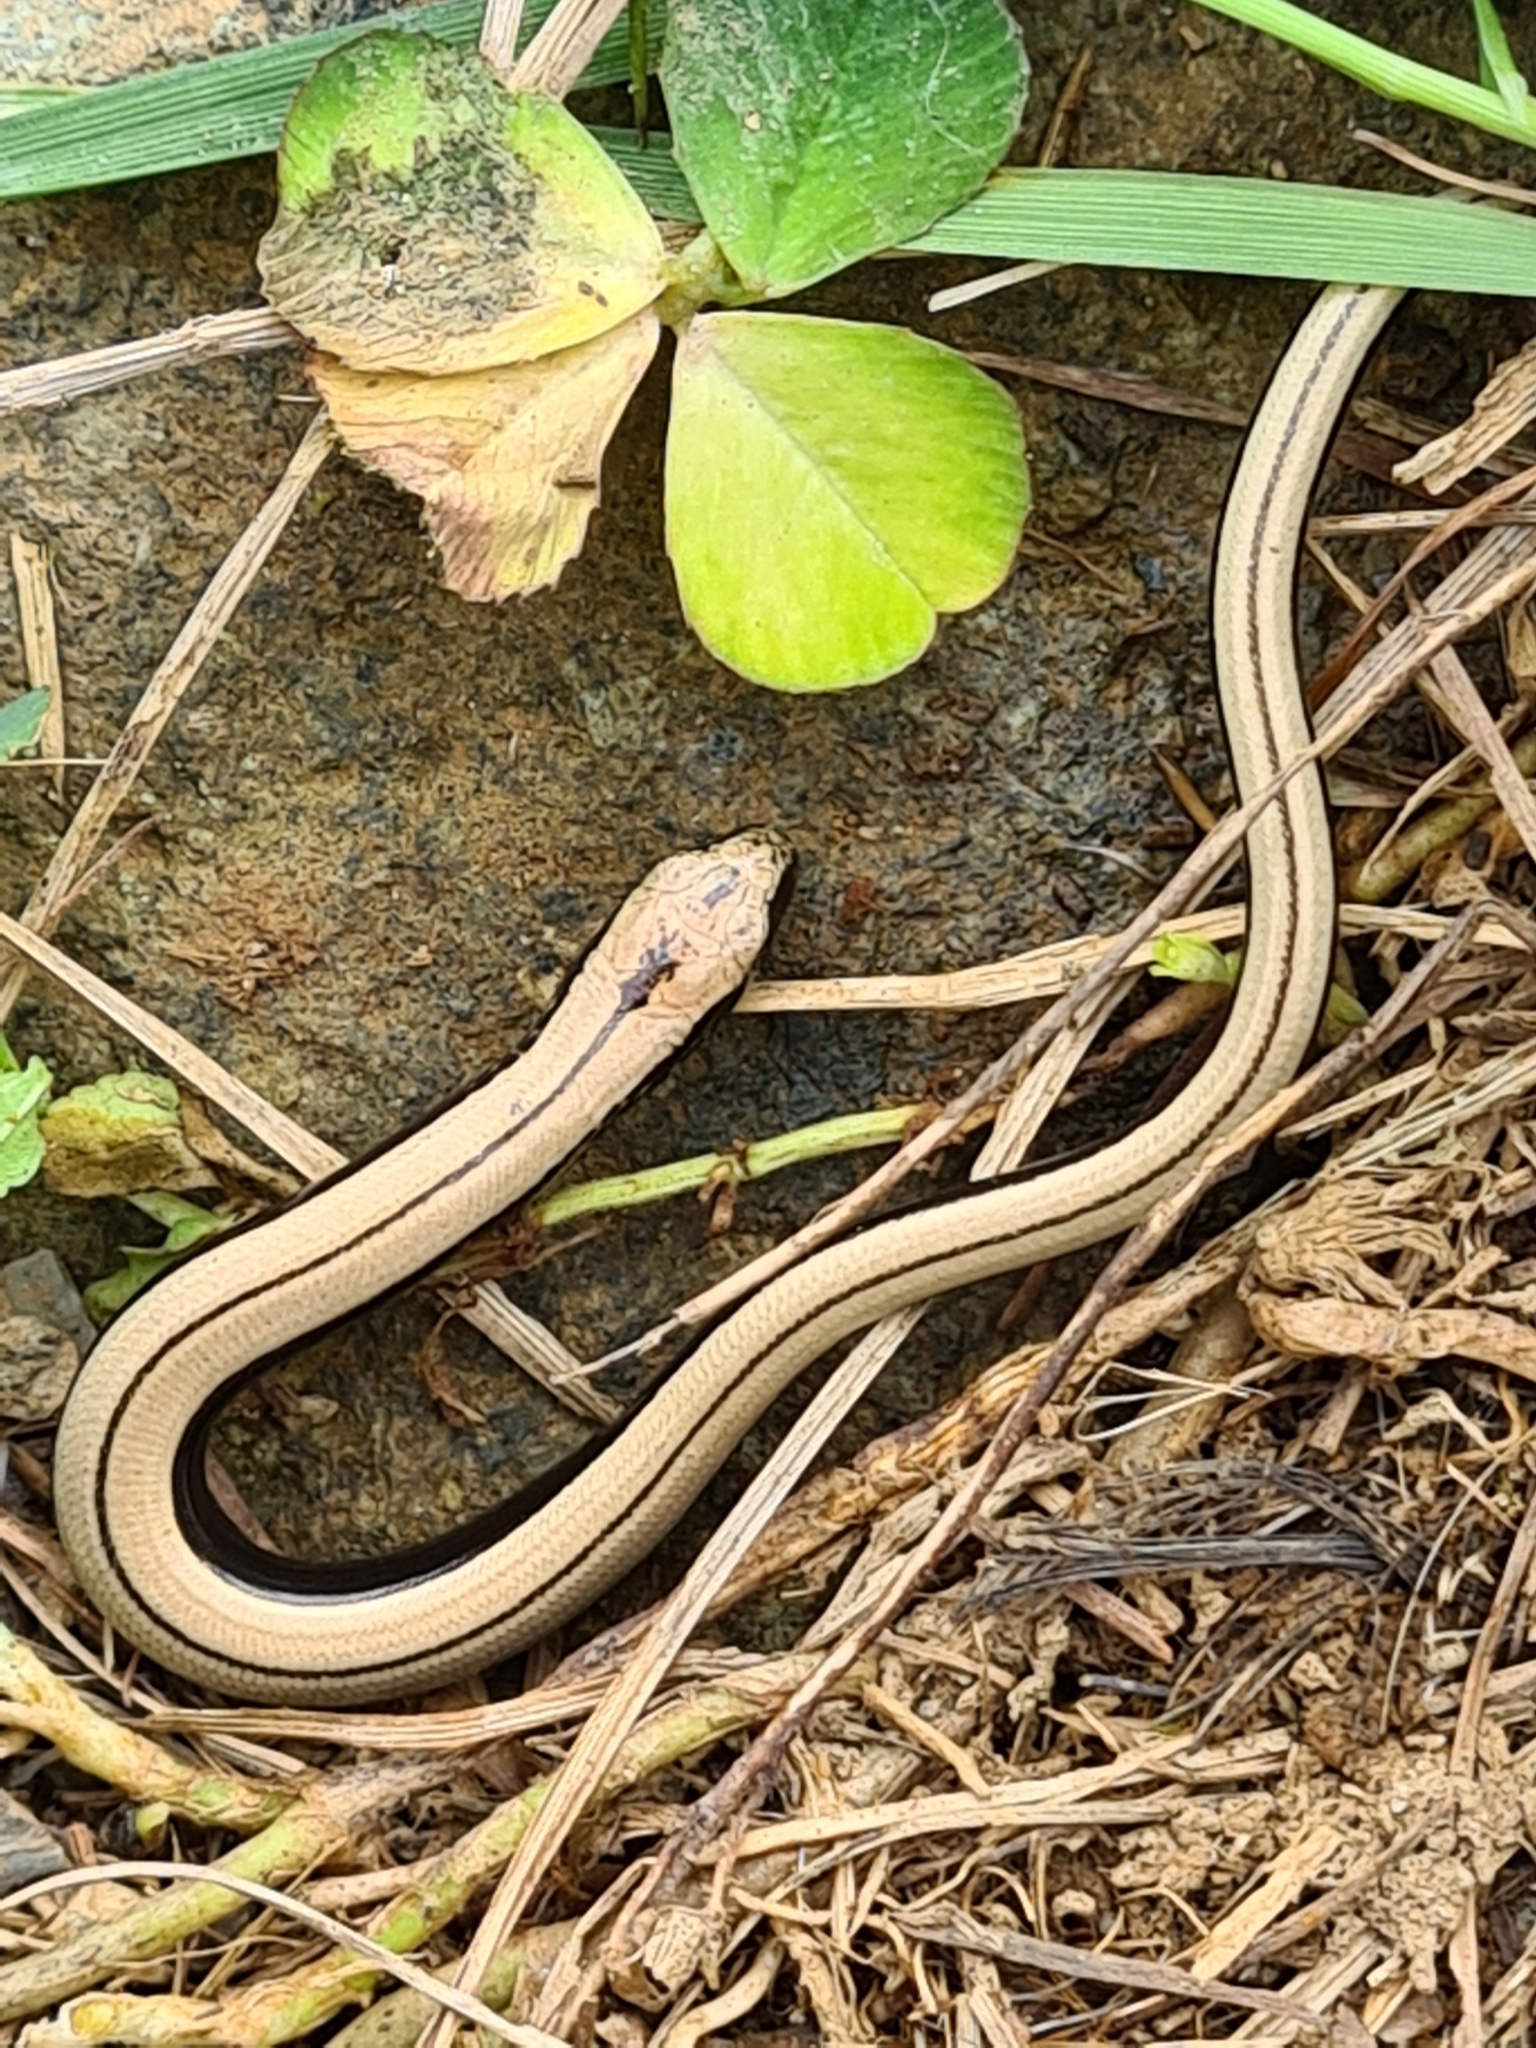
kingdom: Animalia
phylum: Chordata
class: Squamata
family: Anguidae
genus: Anguis
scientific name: Anguis fragilis
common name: Slow worm
